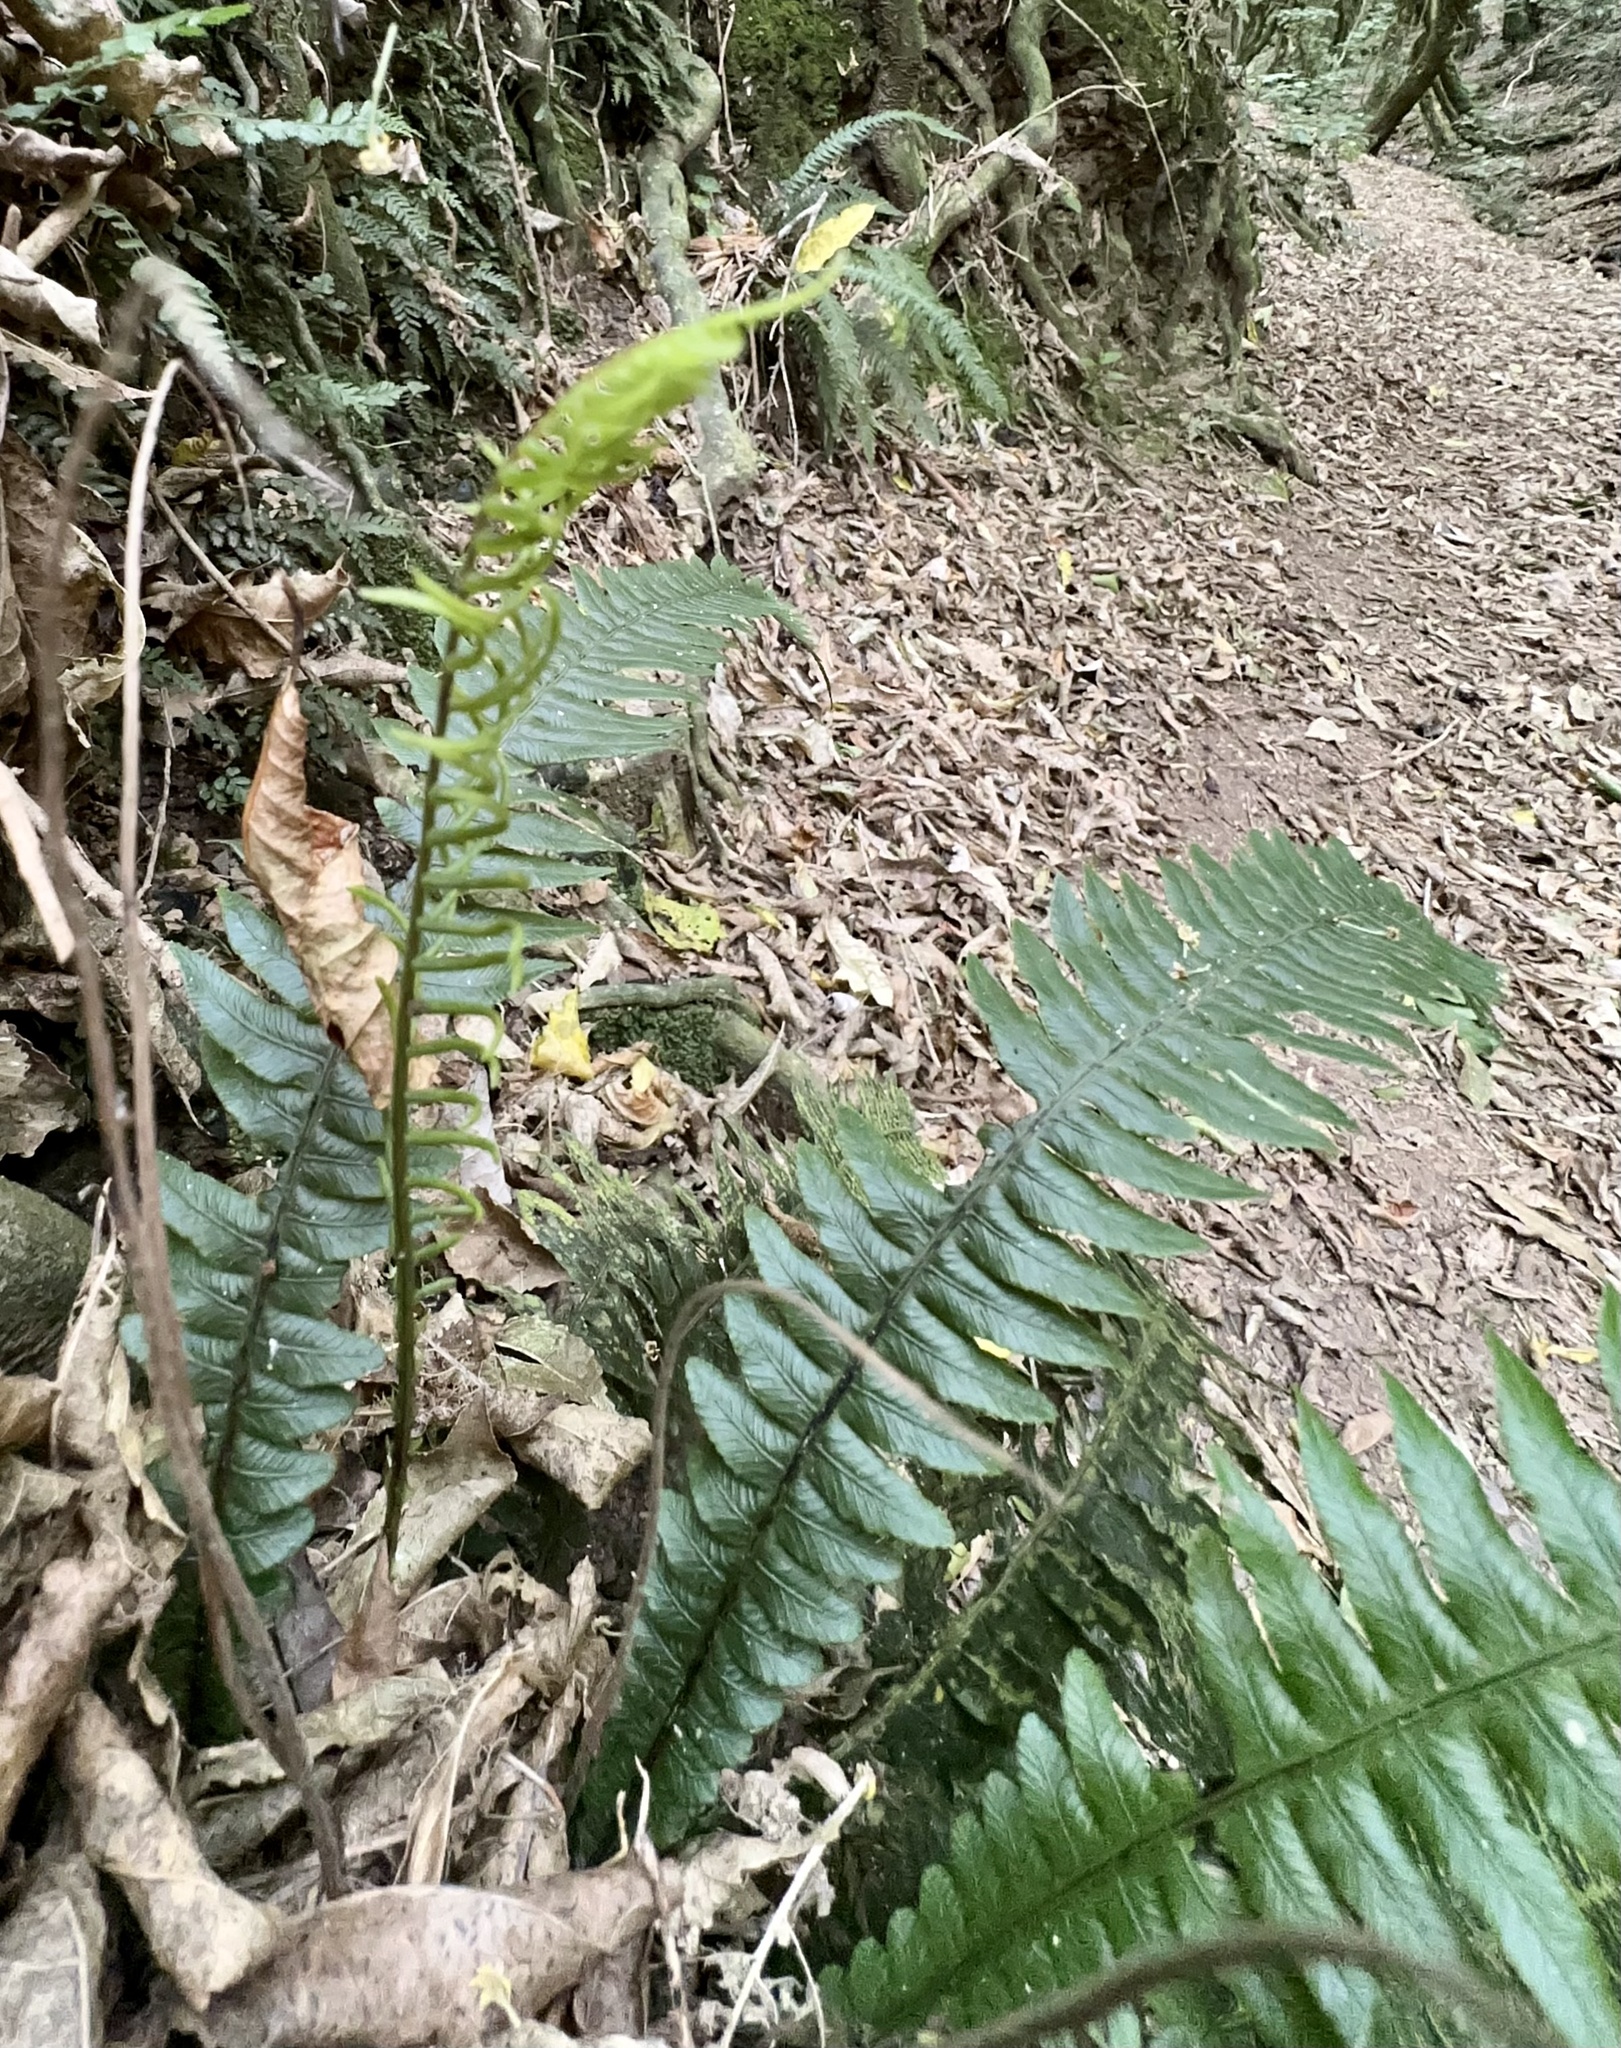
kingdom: Plantae
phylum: Tracheophyta
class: Polypodiopsida
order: Polypodiales
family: Blechnaceae
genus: Austroblechnum
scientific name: Austroblechnum lanceolatum
